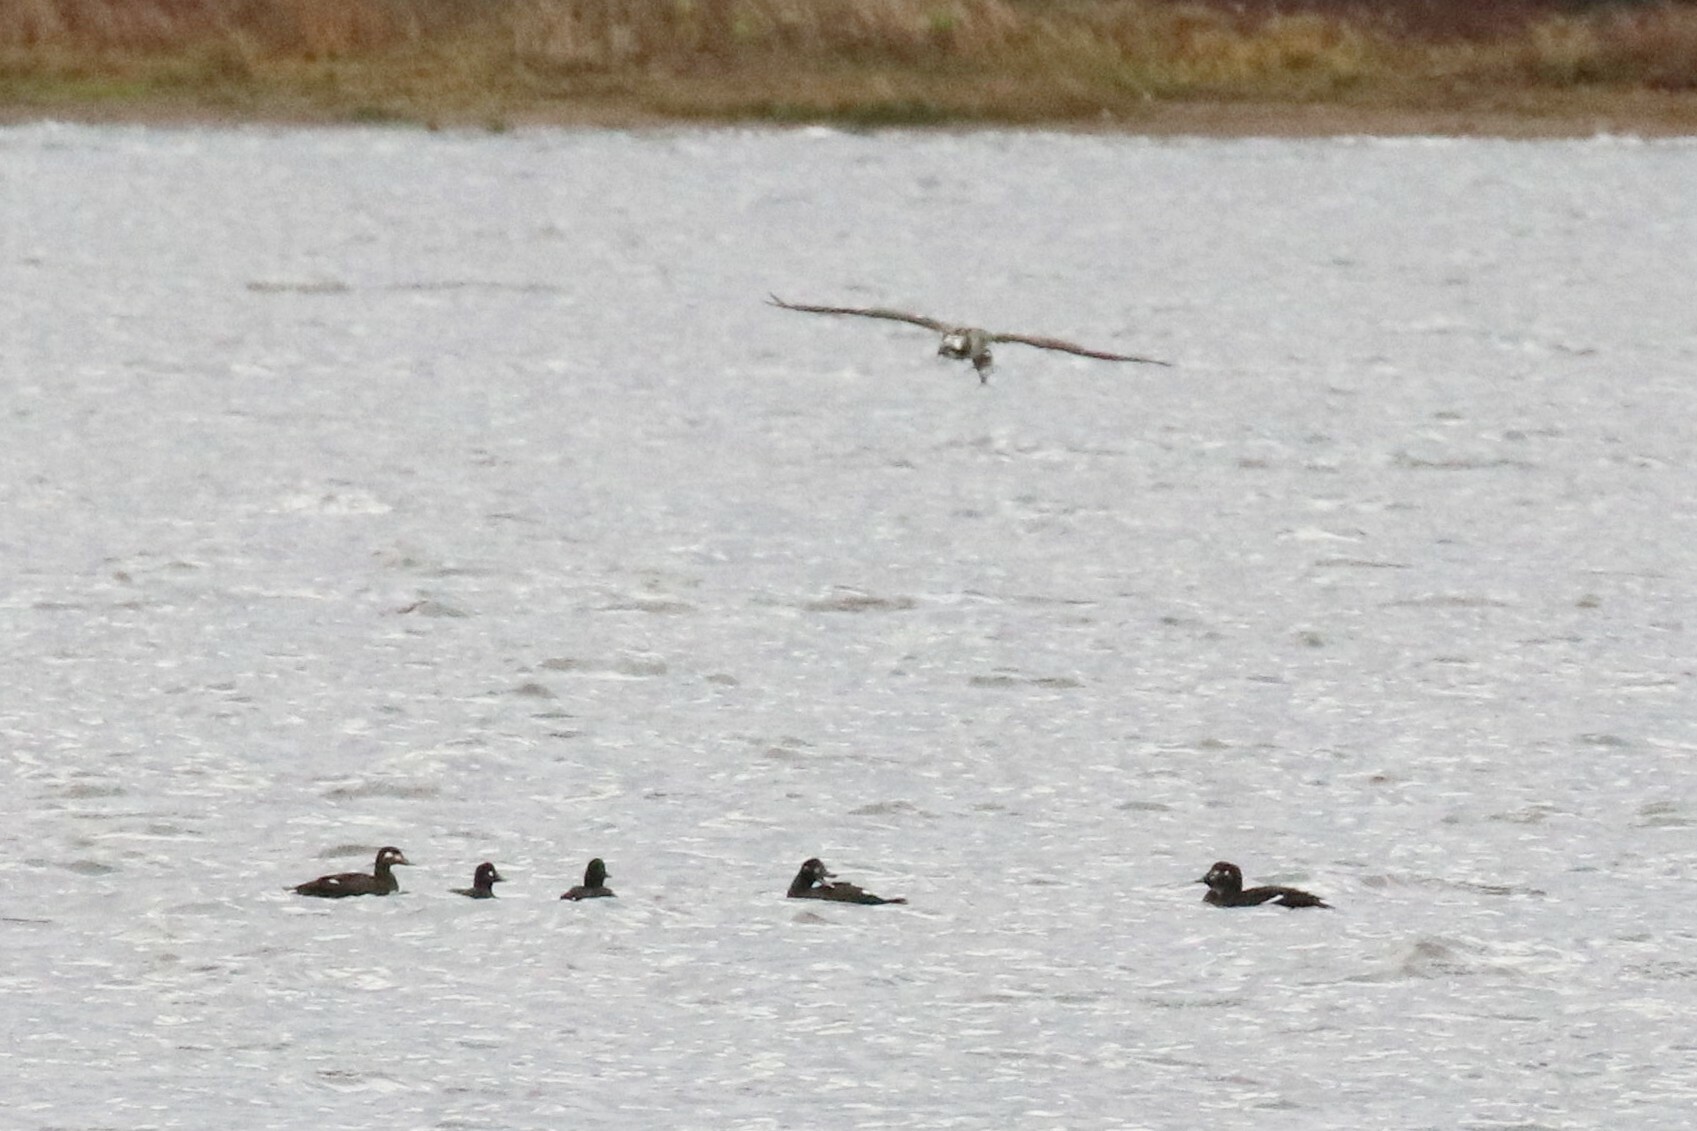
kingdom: Animalia
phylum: Chordata
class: Aves
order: Anseriformes
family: Anatidae
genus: Melanitta
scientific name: Melanitta fusca
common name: Velvet scoter
